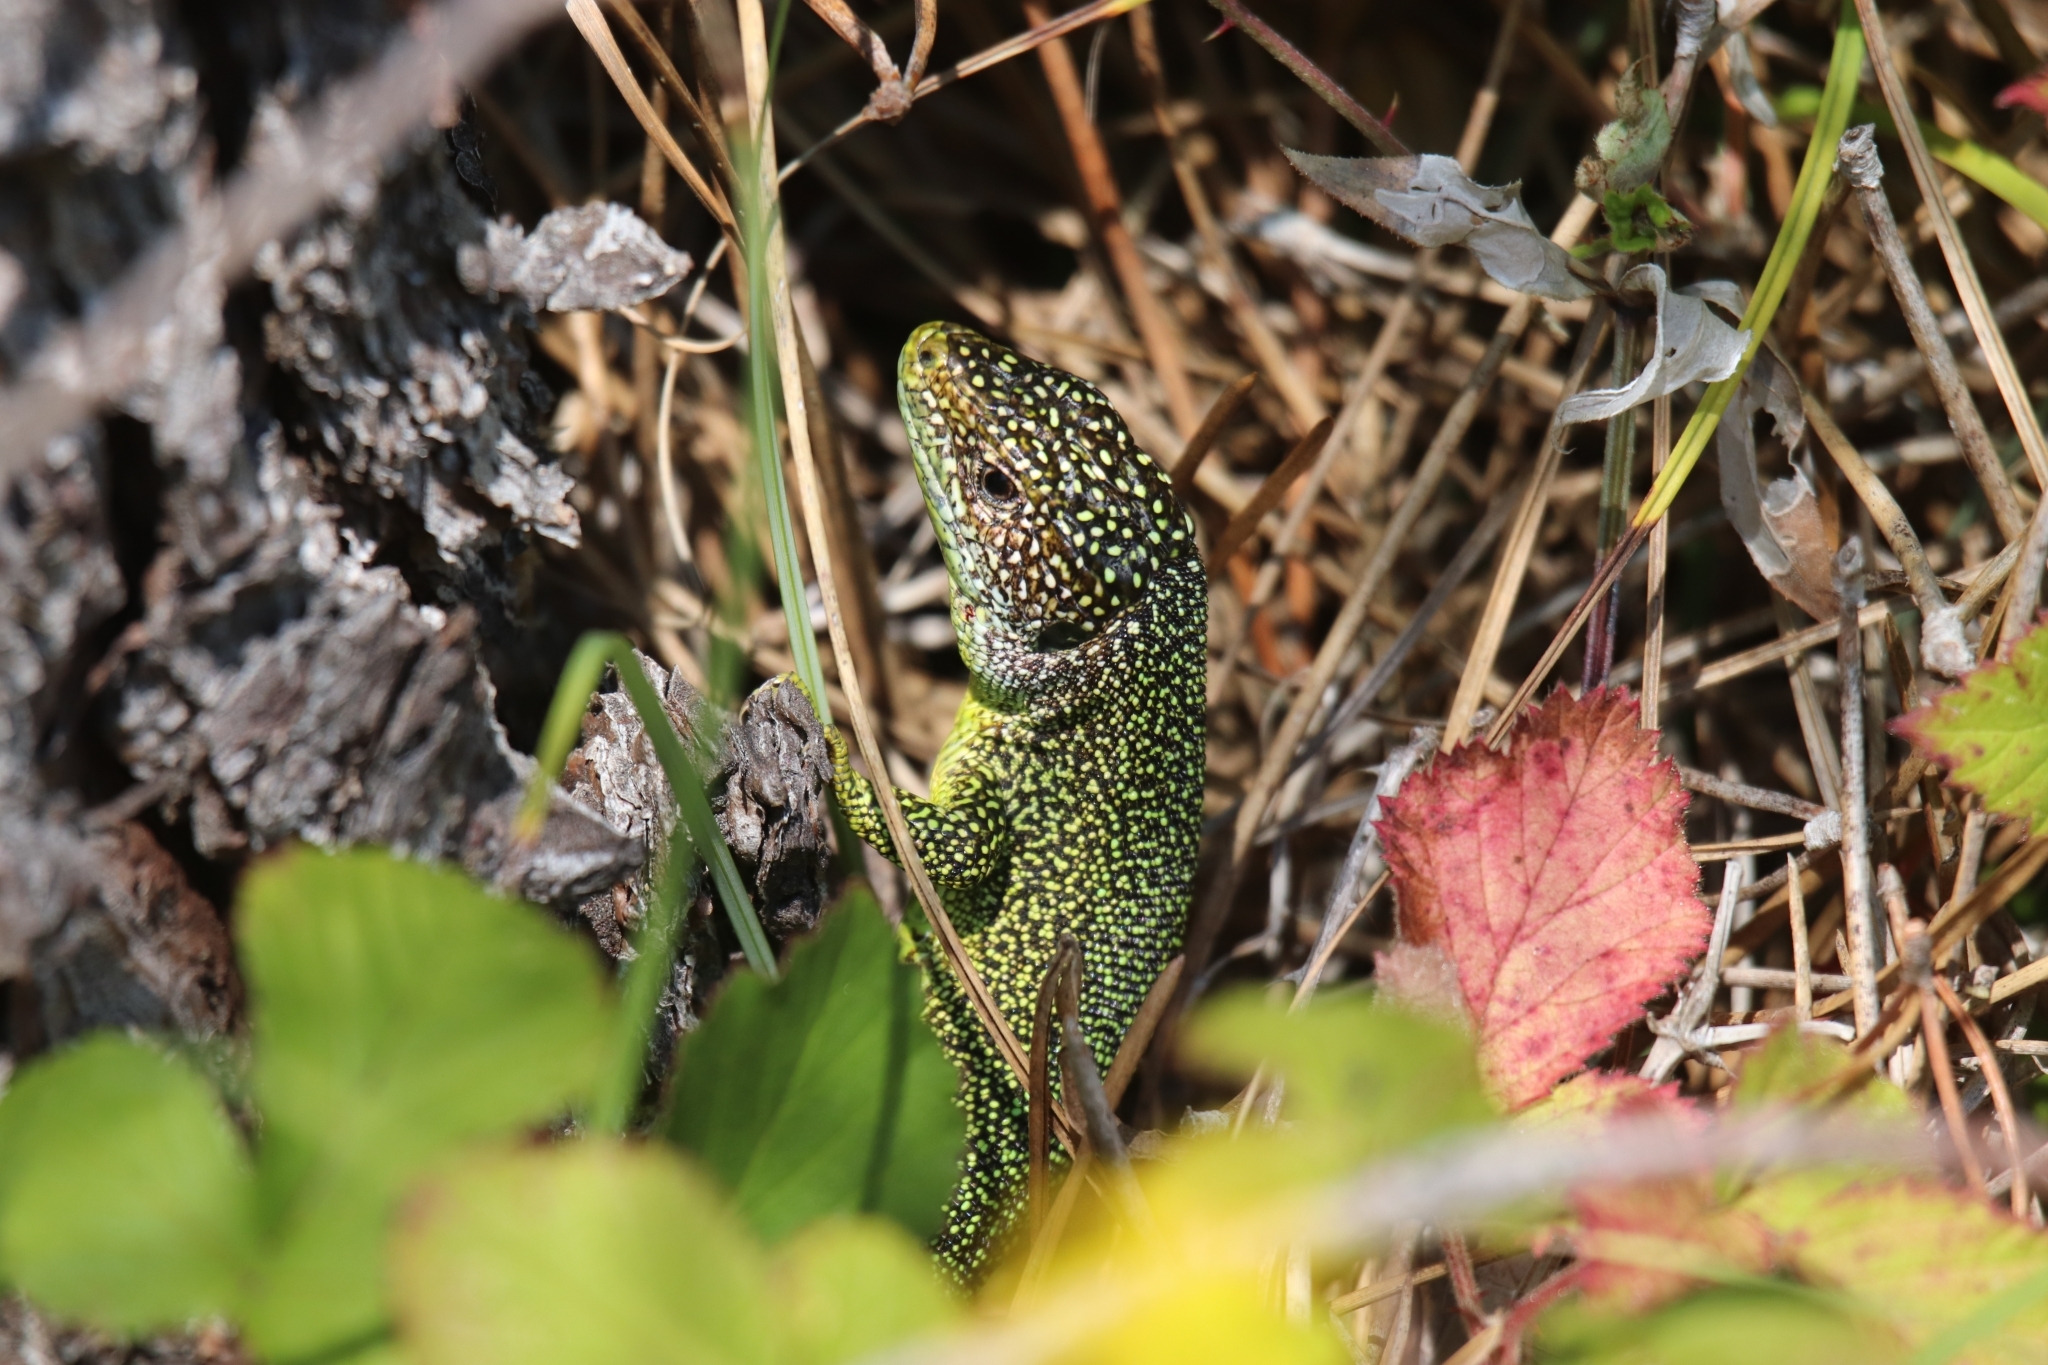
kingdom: Animalia
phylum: Chordata
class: Squamata
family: Lacertidae
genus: Lacerta
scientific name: Lacerta bilineata
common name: Western green lizard
